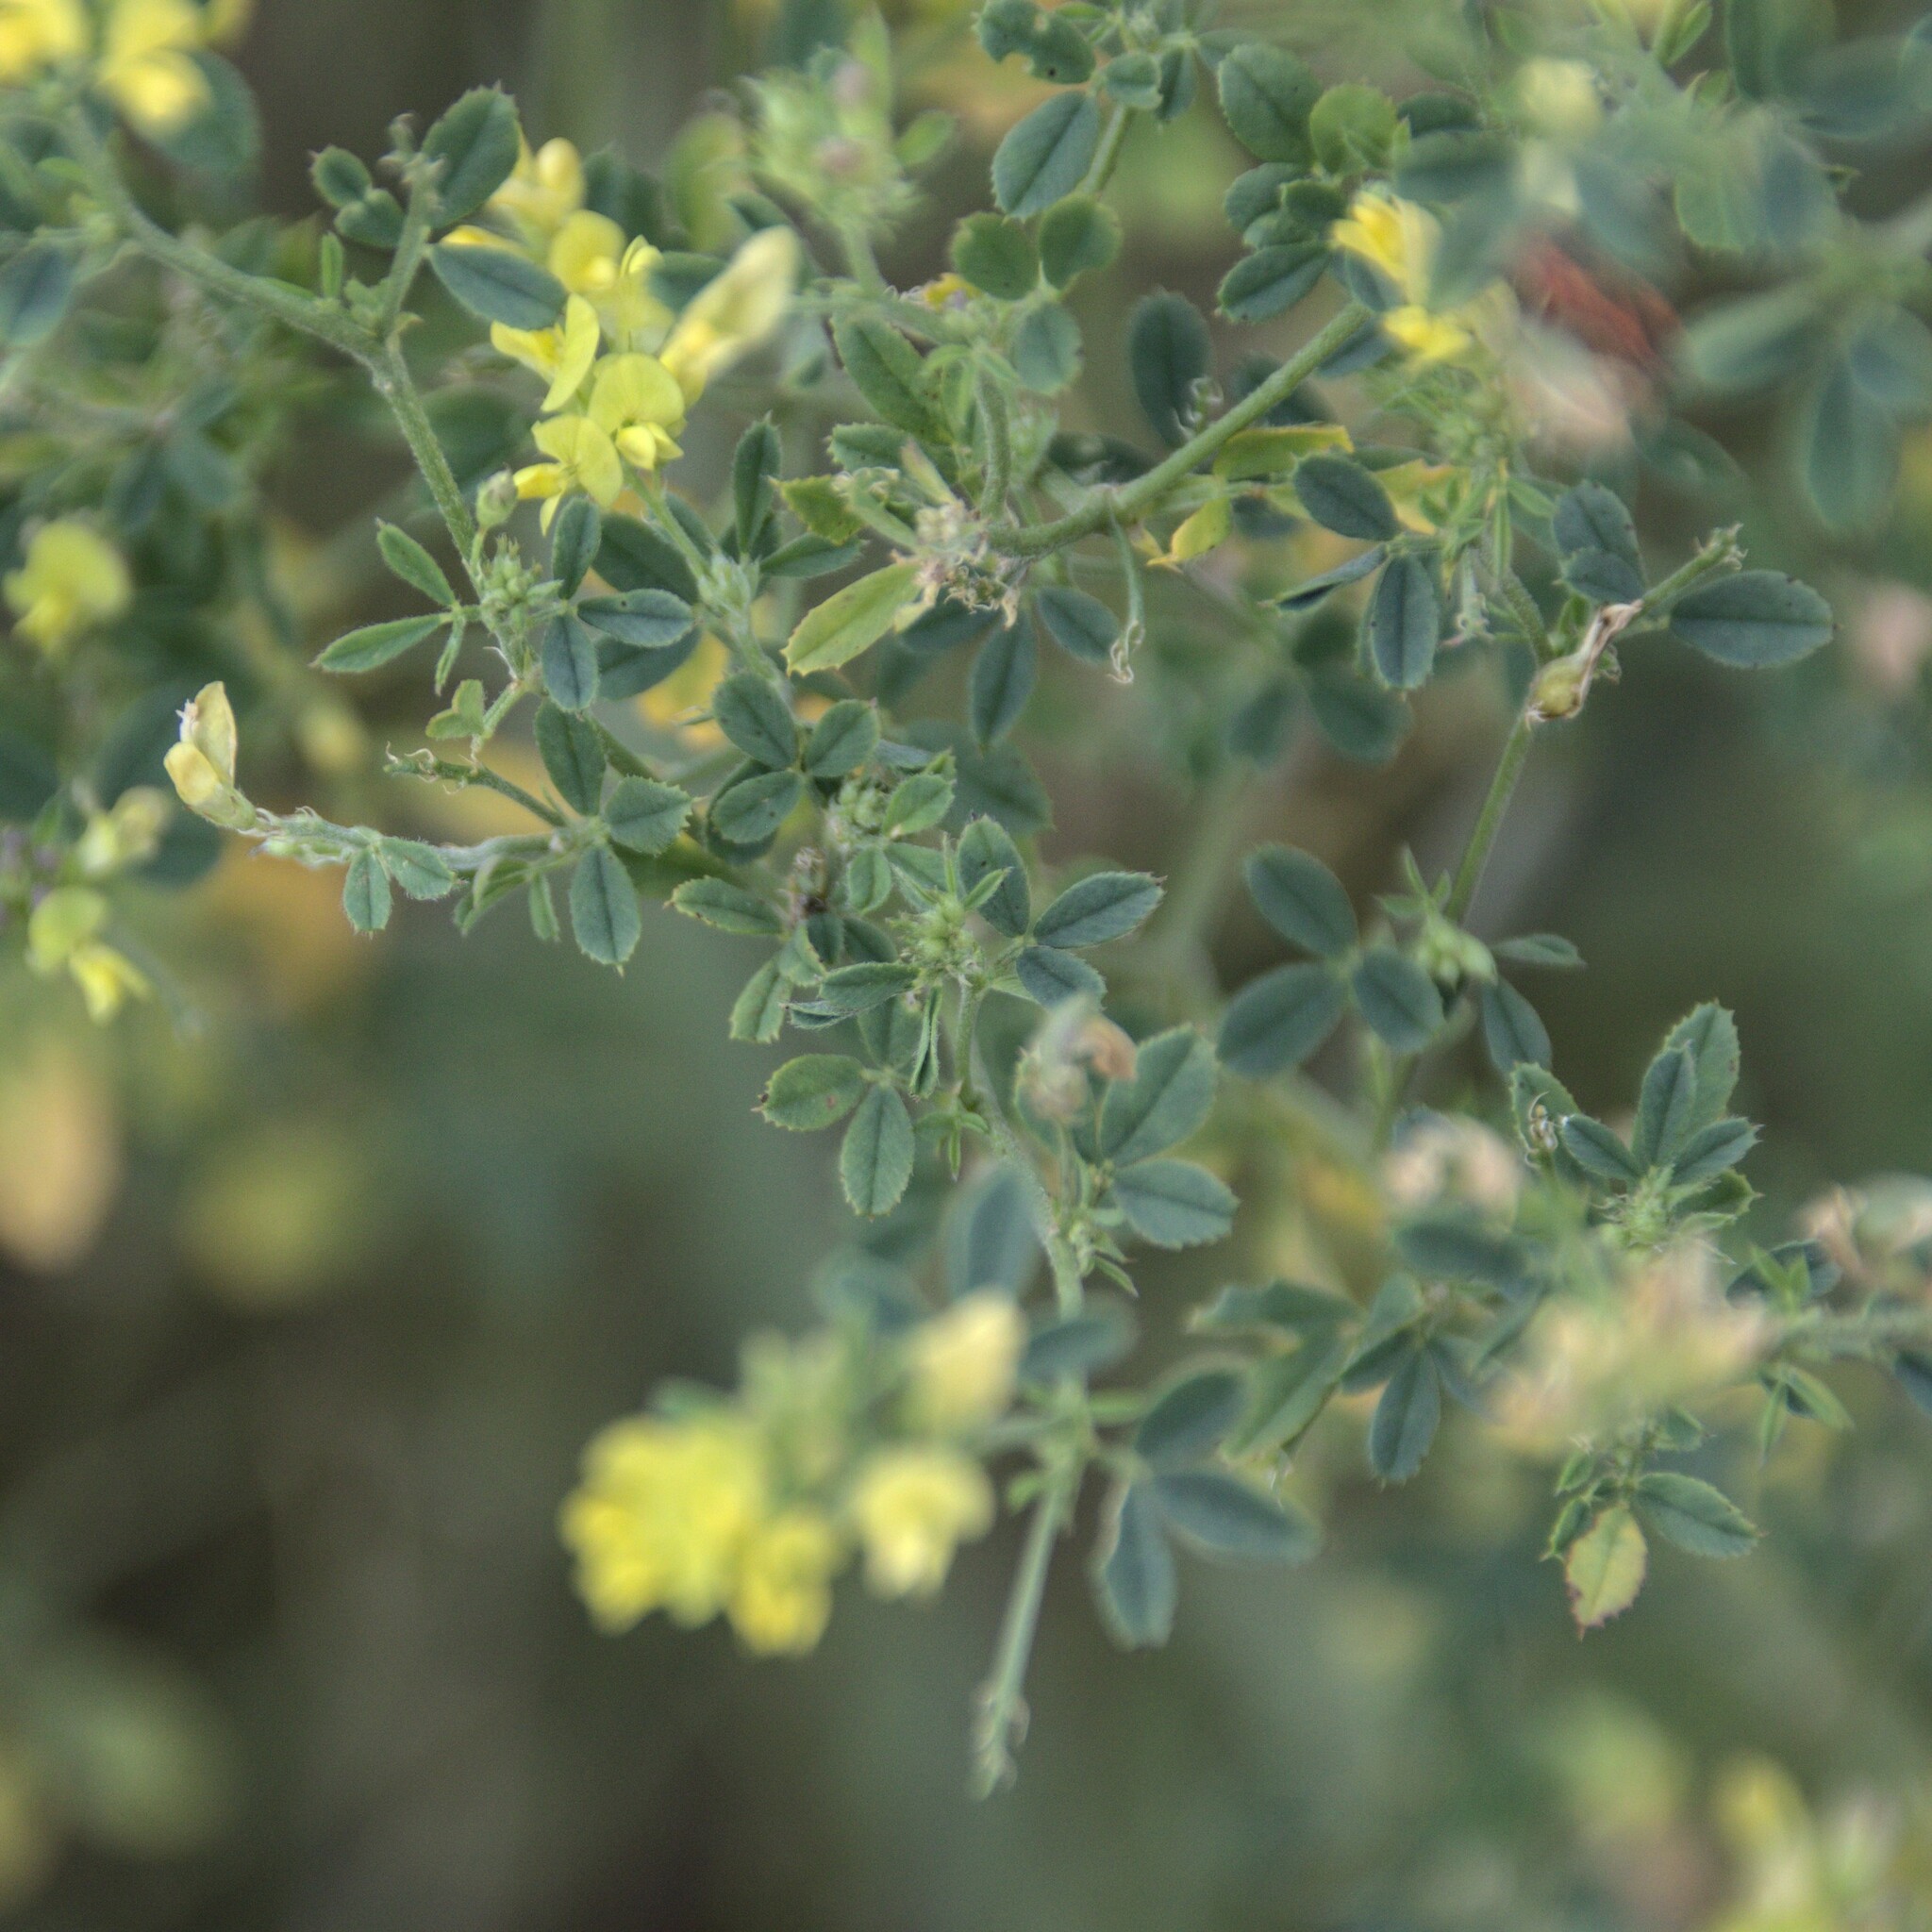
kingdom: Plantae
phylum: Tracheophyta
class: Magnoliopsida
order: Fabales
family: Fabaceae
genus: Medicago
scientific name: Medicago varia
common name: Sand lucerne
